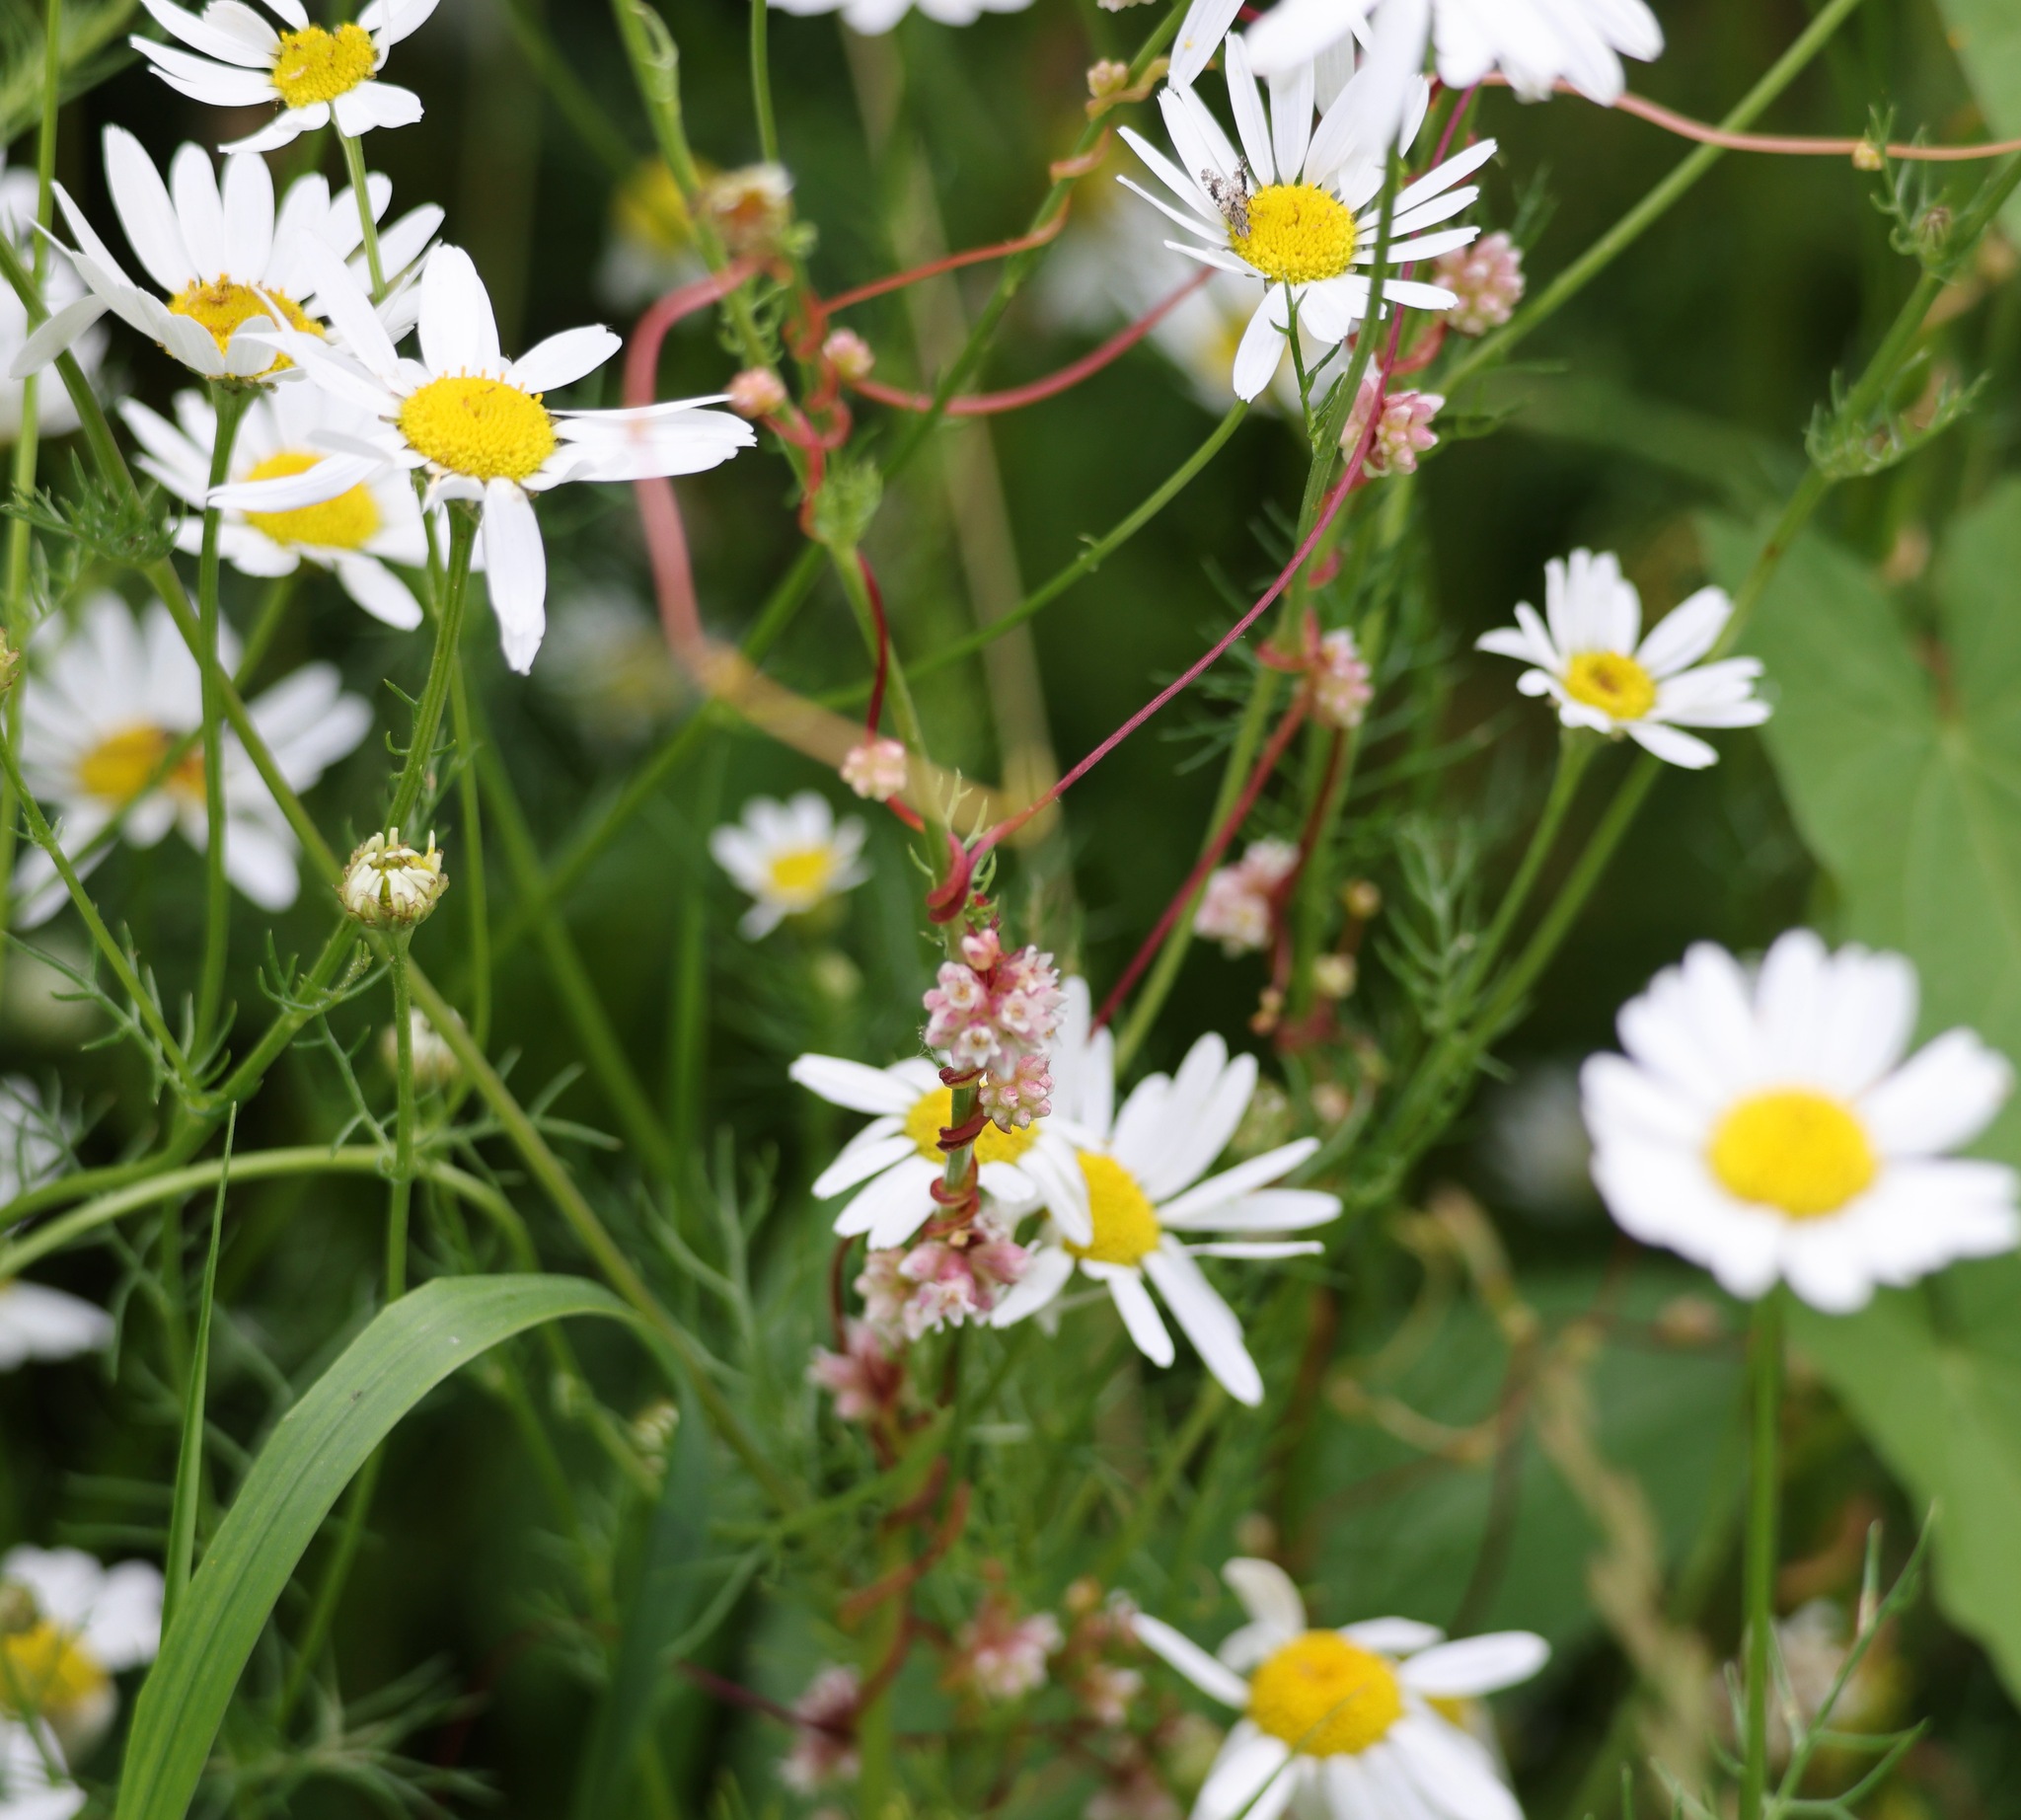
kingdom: Plantae
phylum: Tracheophyta
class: Magnoliopsida
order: Solanales
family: Convolvulaceae
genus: Cuscuta
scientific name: Cuscuta epithymum
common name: Clover dodder
